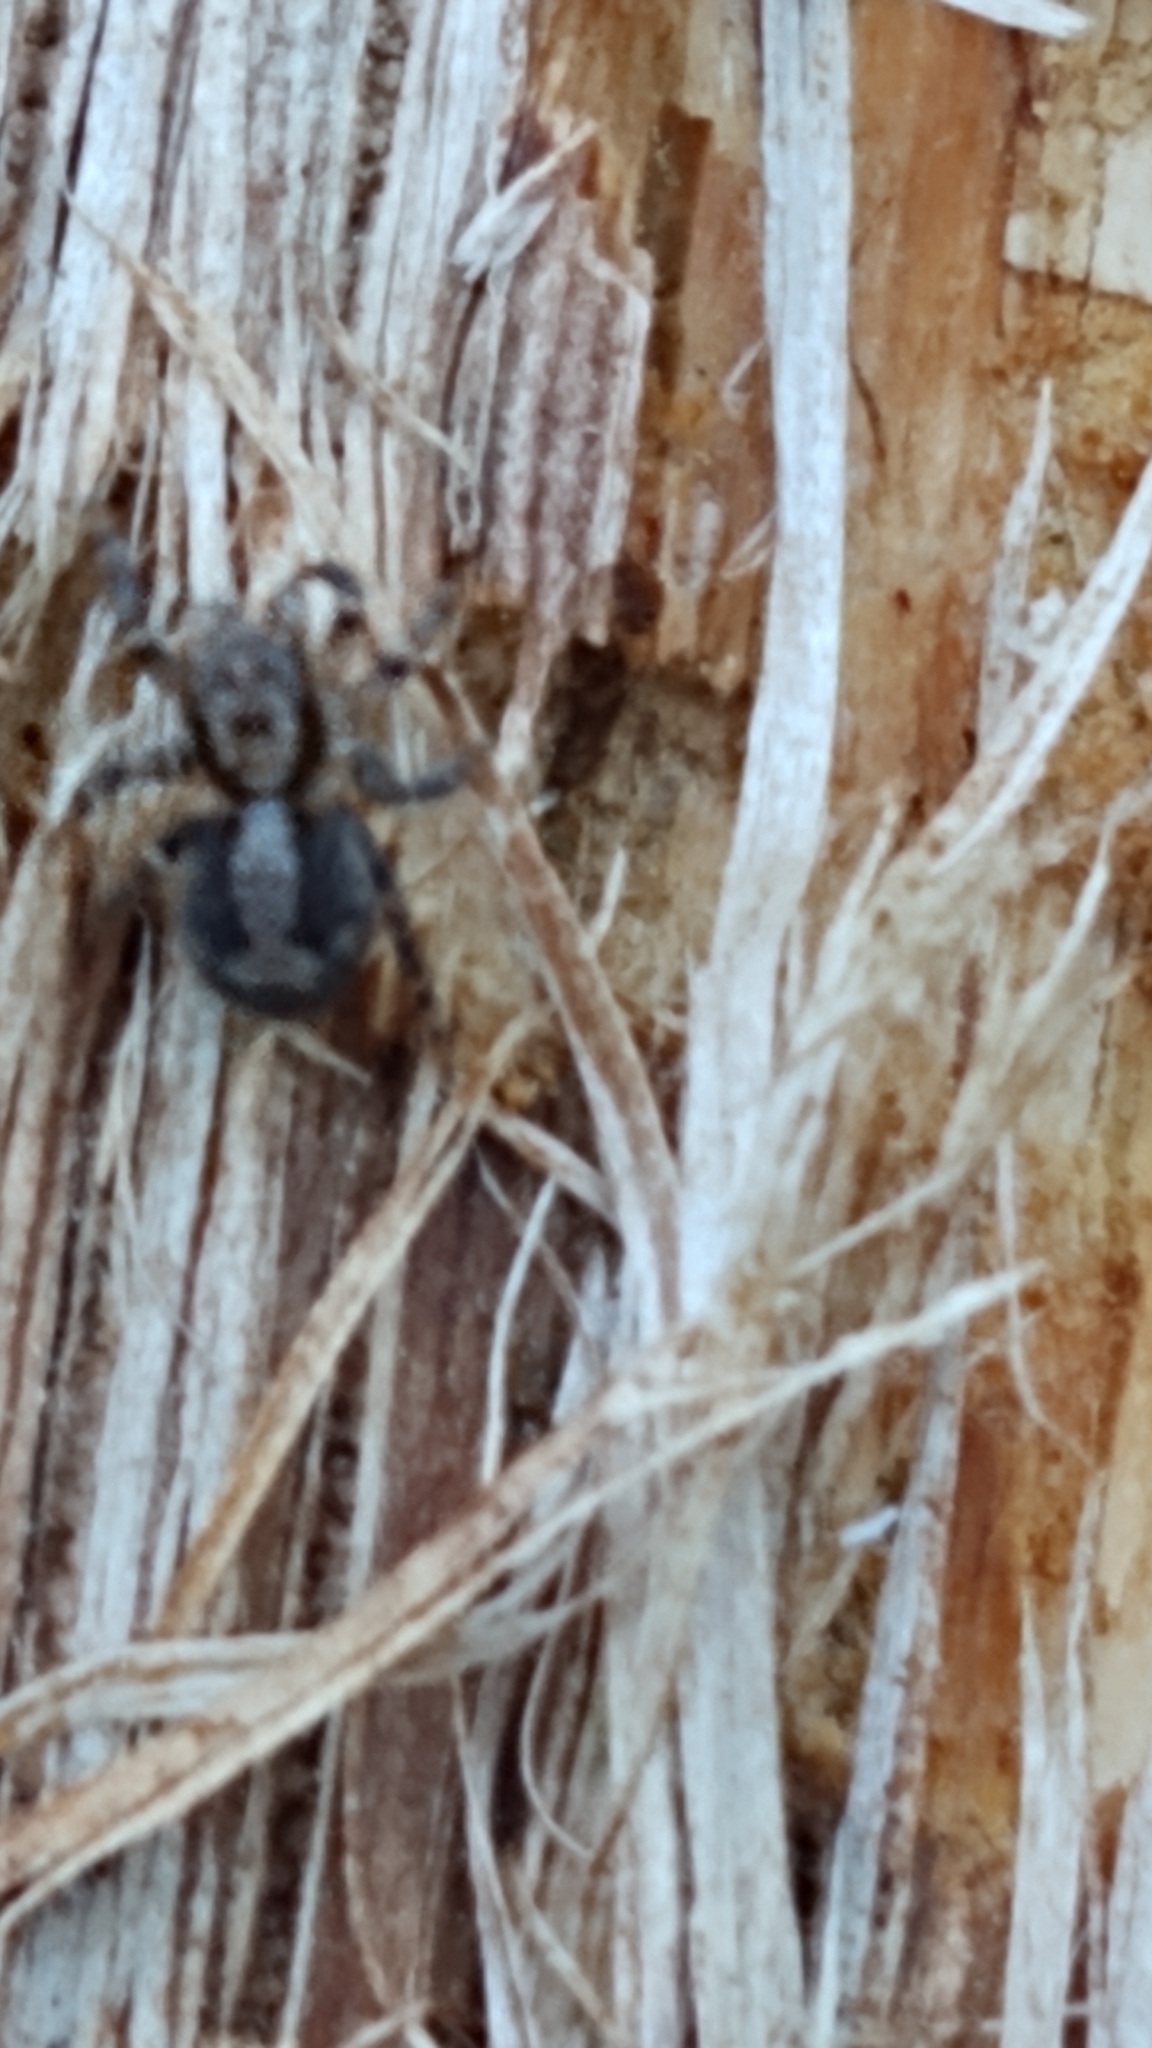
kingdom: Animalia
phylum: Arthropoda
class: Arachnida
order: Araneae
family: Salticidae
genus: Naphrys
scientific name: Naphrys pulex
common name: Flea jumping spider
